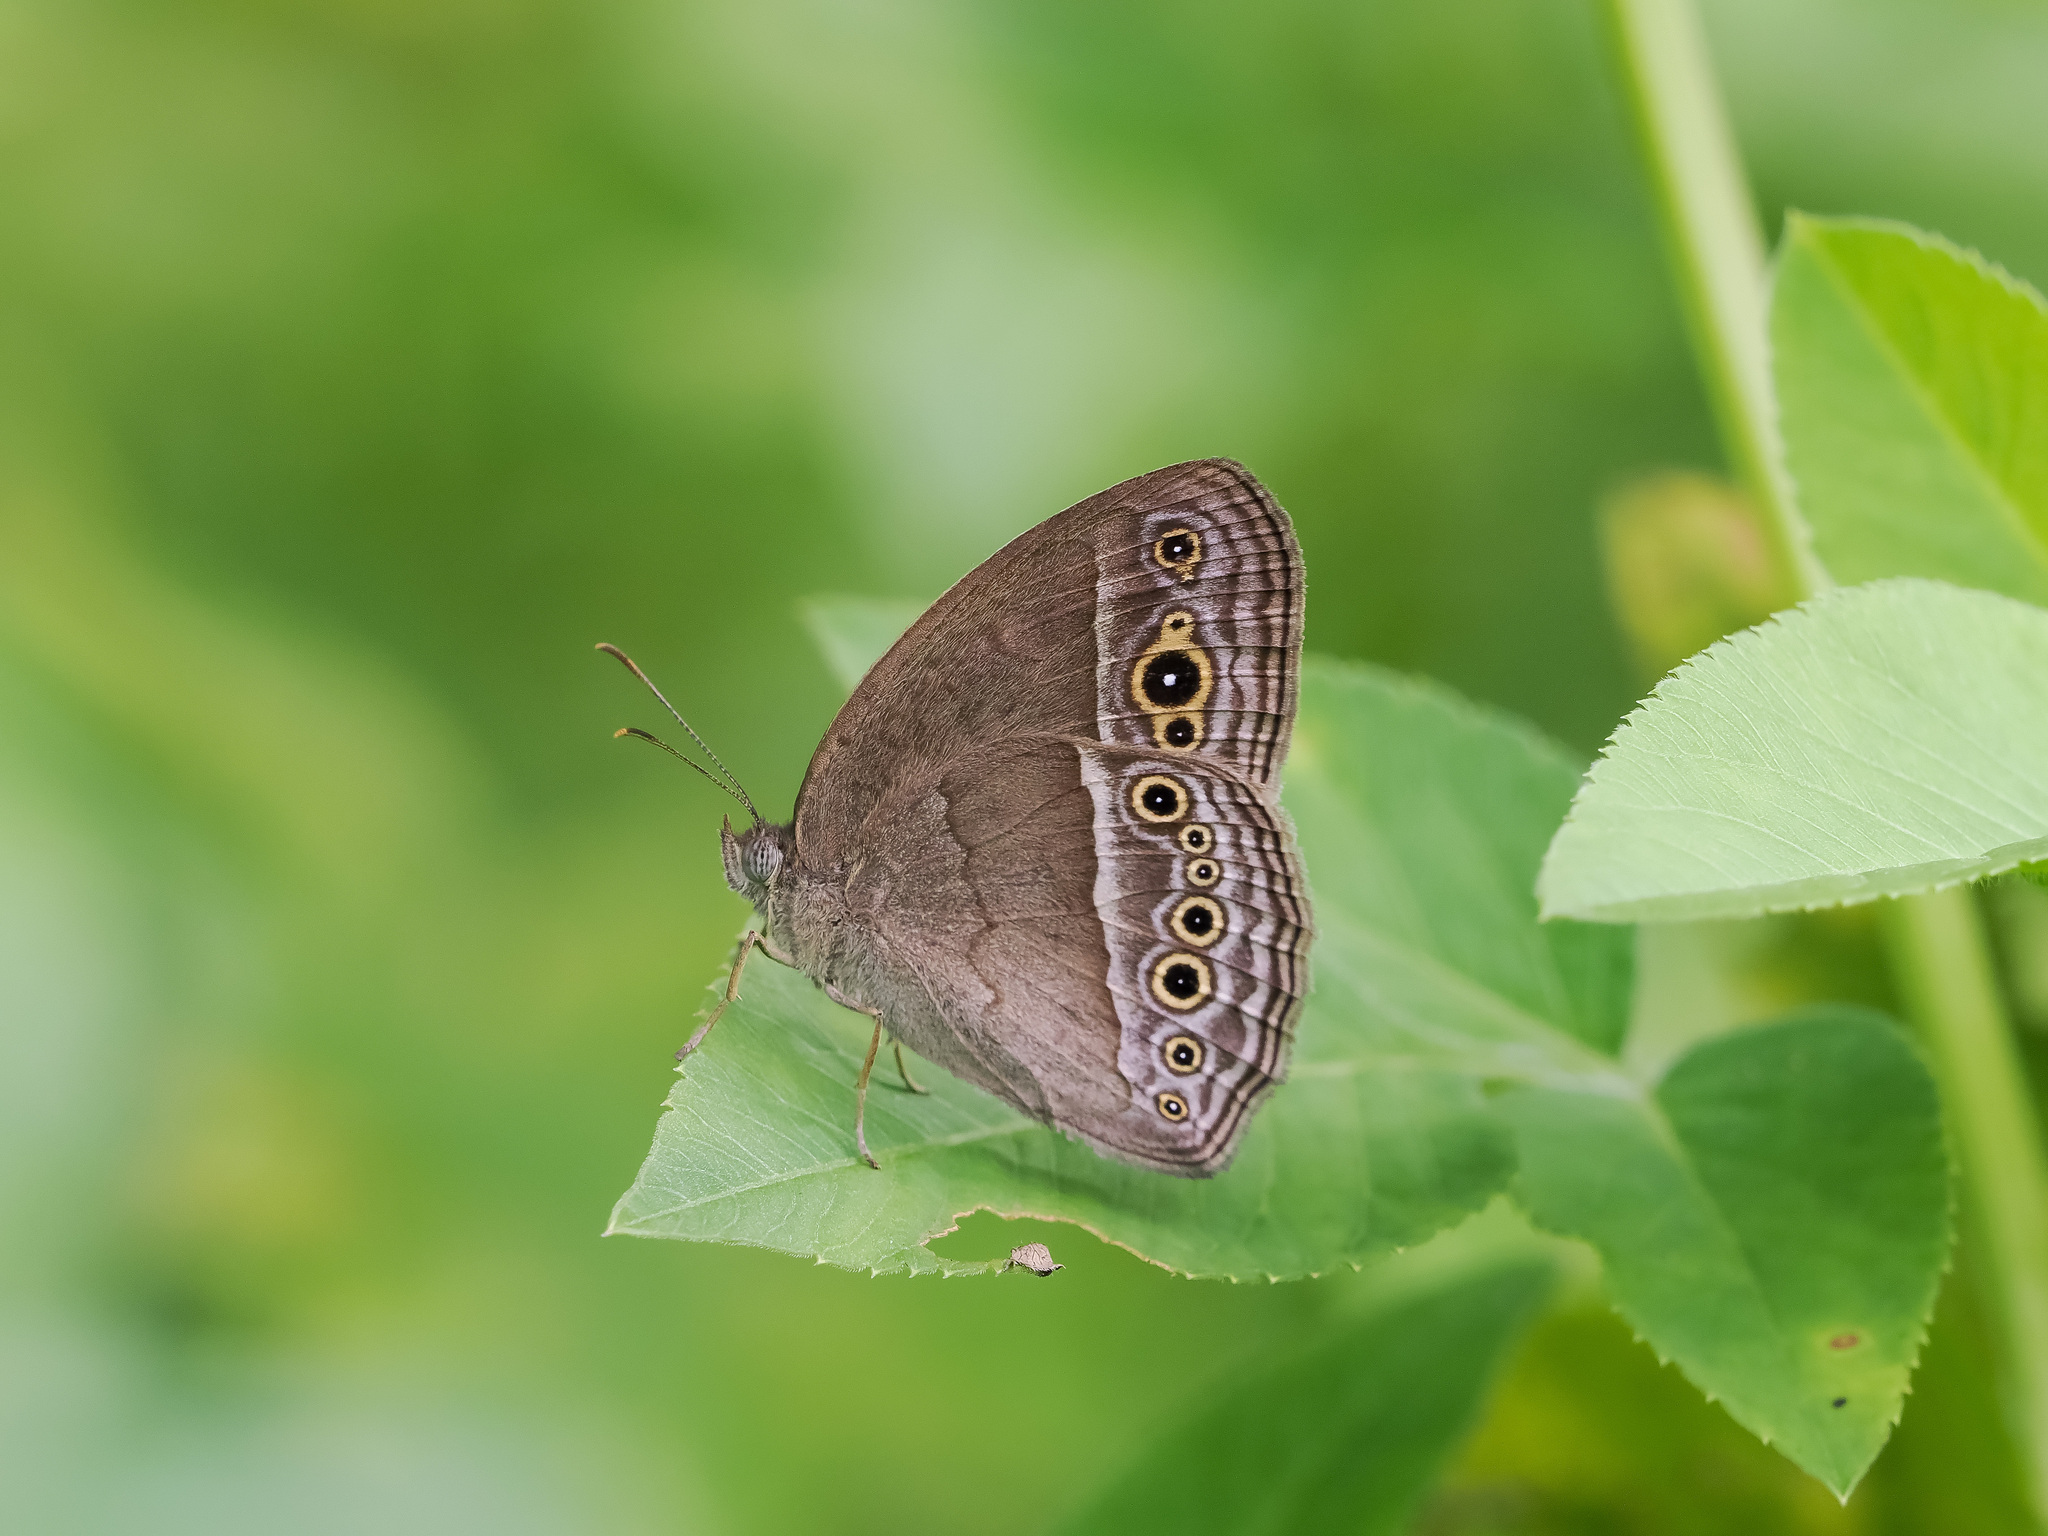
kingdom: Animalia
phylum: Arthropoda
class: Insecta
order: Lepidoptera
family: Nymphalidae
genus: Mycalesis
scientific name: Mycalesis perseoides
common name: Burmese bushbrown
